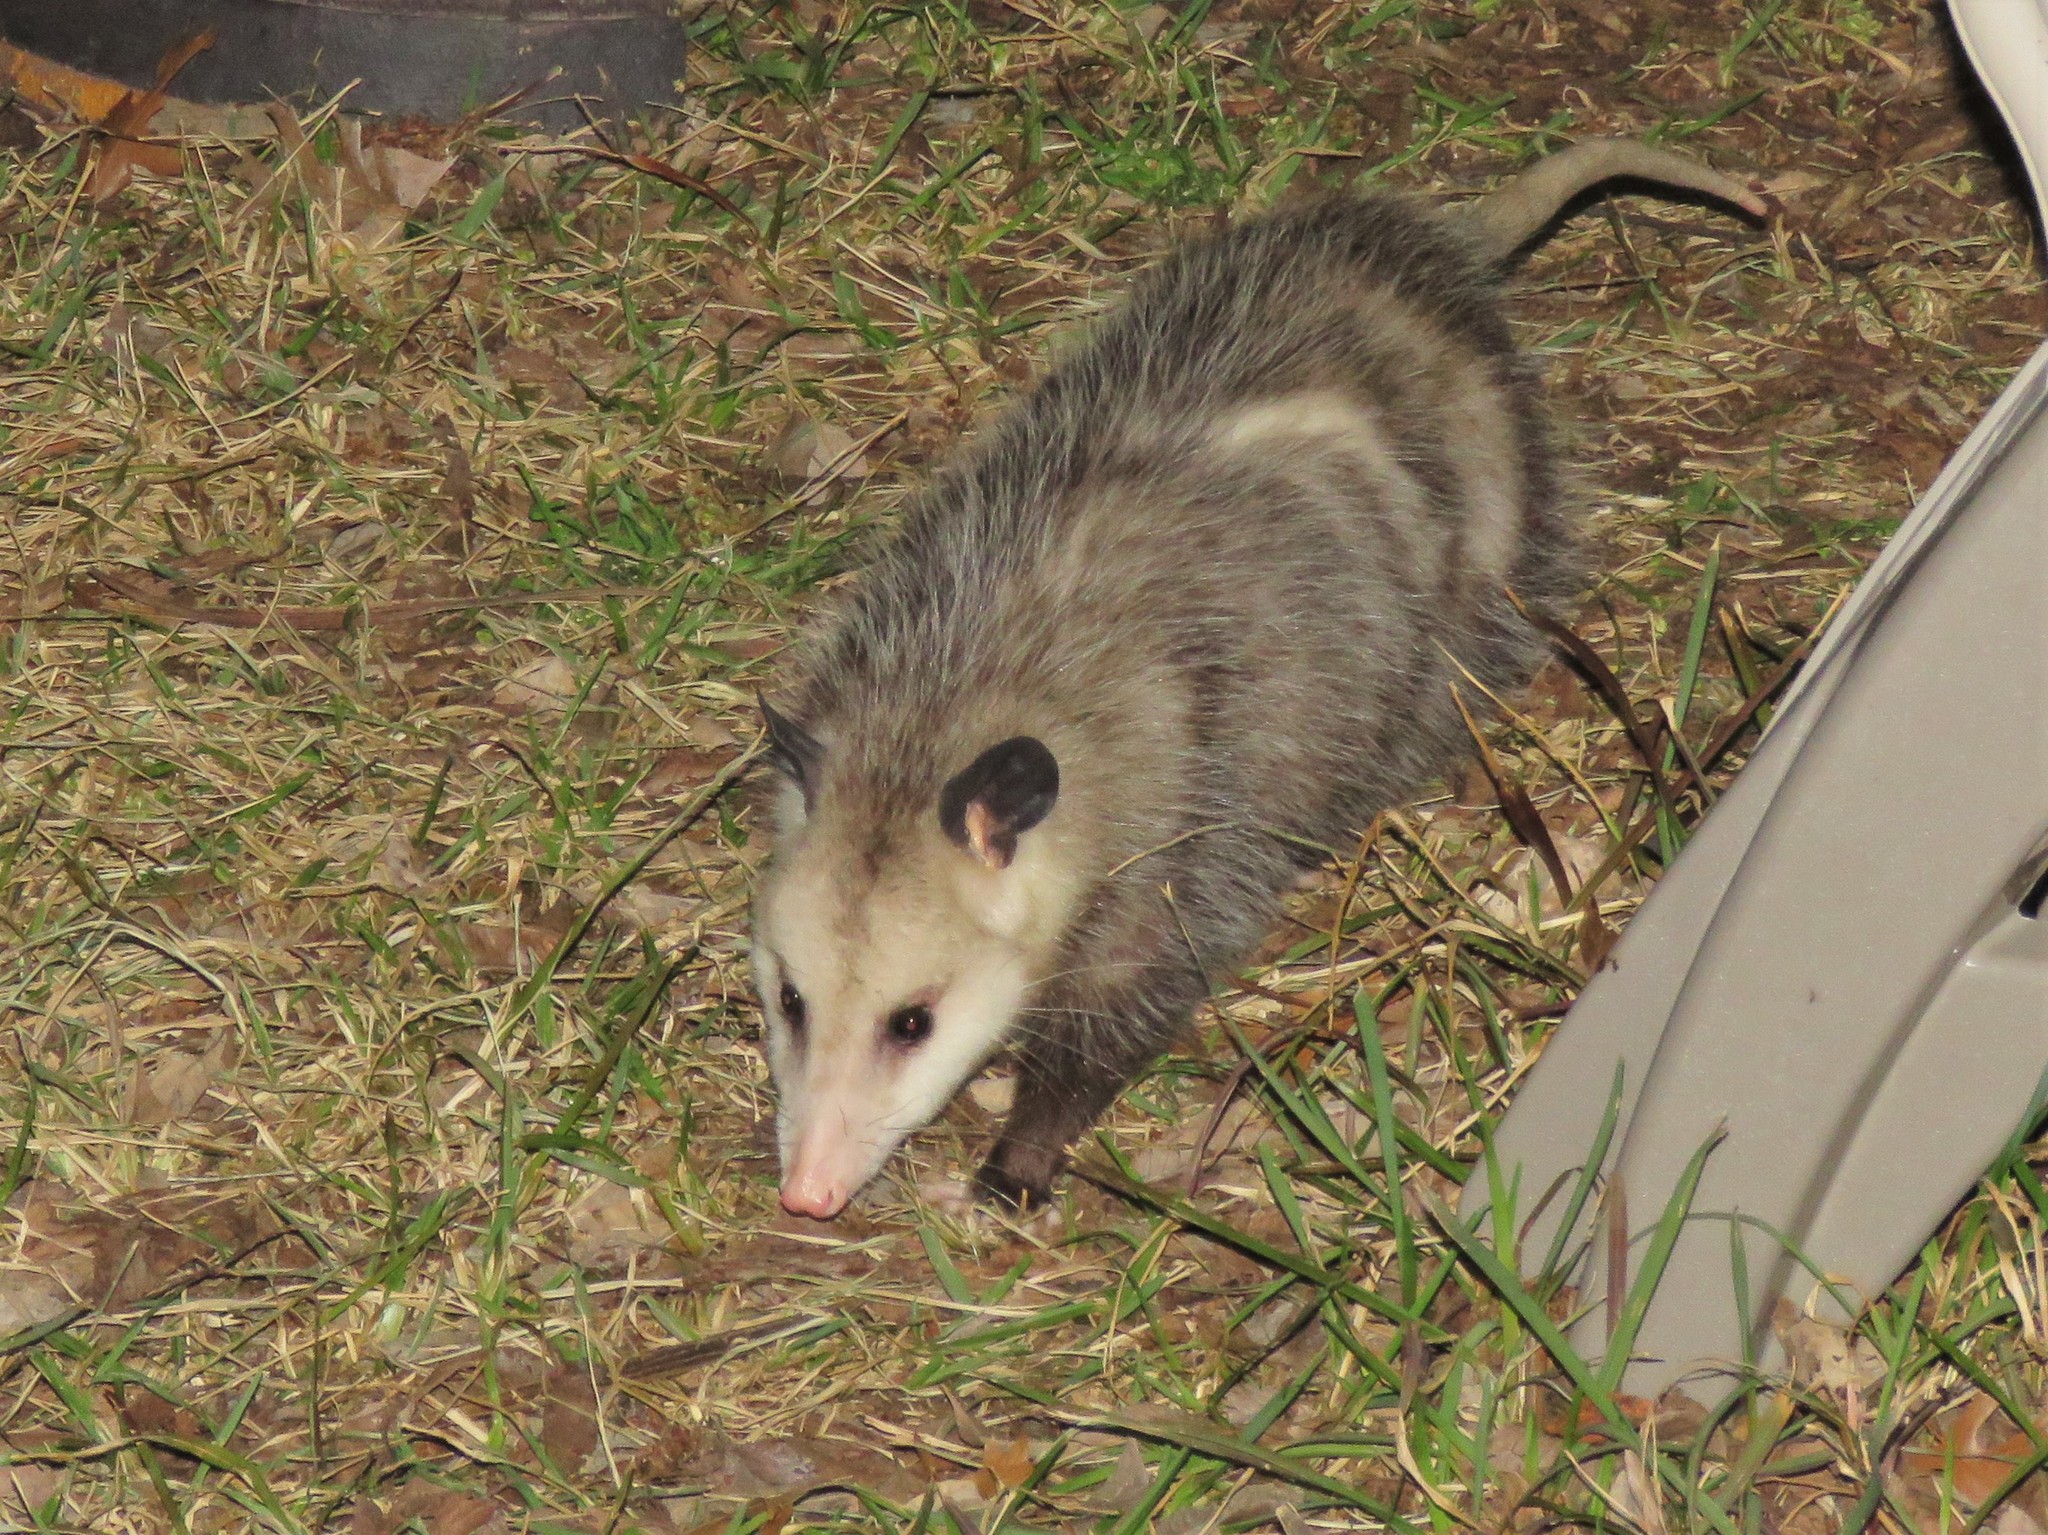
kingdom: Animalia
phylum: Chordata
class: Mammalia
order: Didelphimorphia
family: Didelphidae
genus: Didelphis
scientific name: Didelphis virginiana
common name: Virginia opossum
